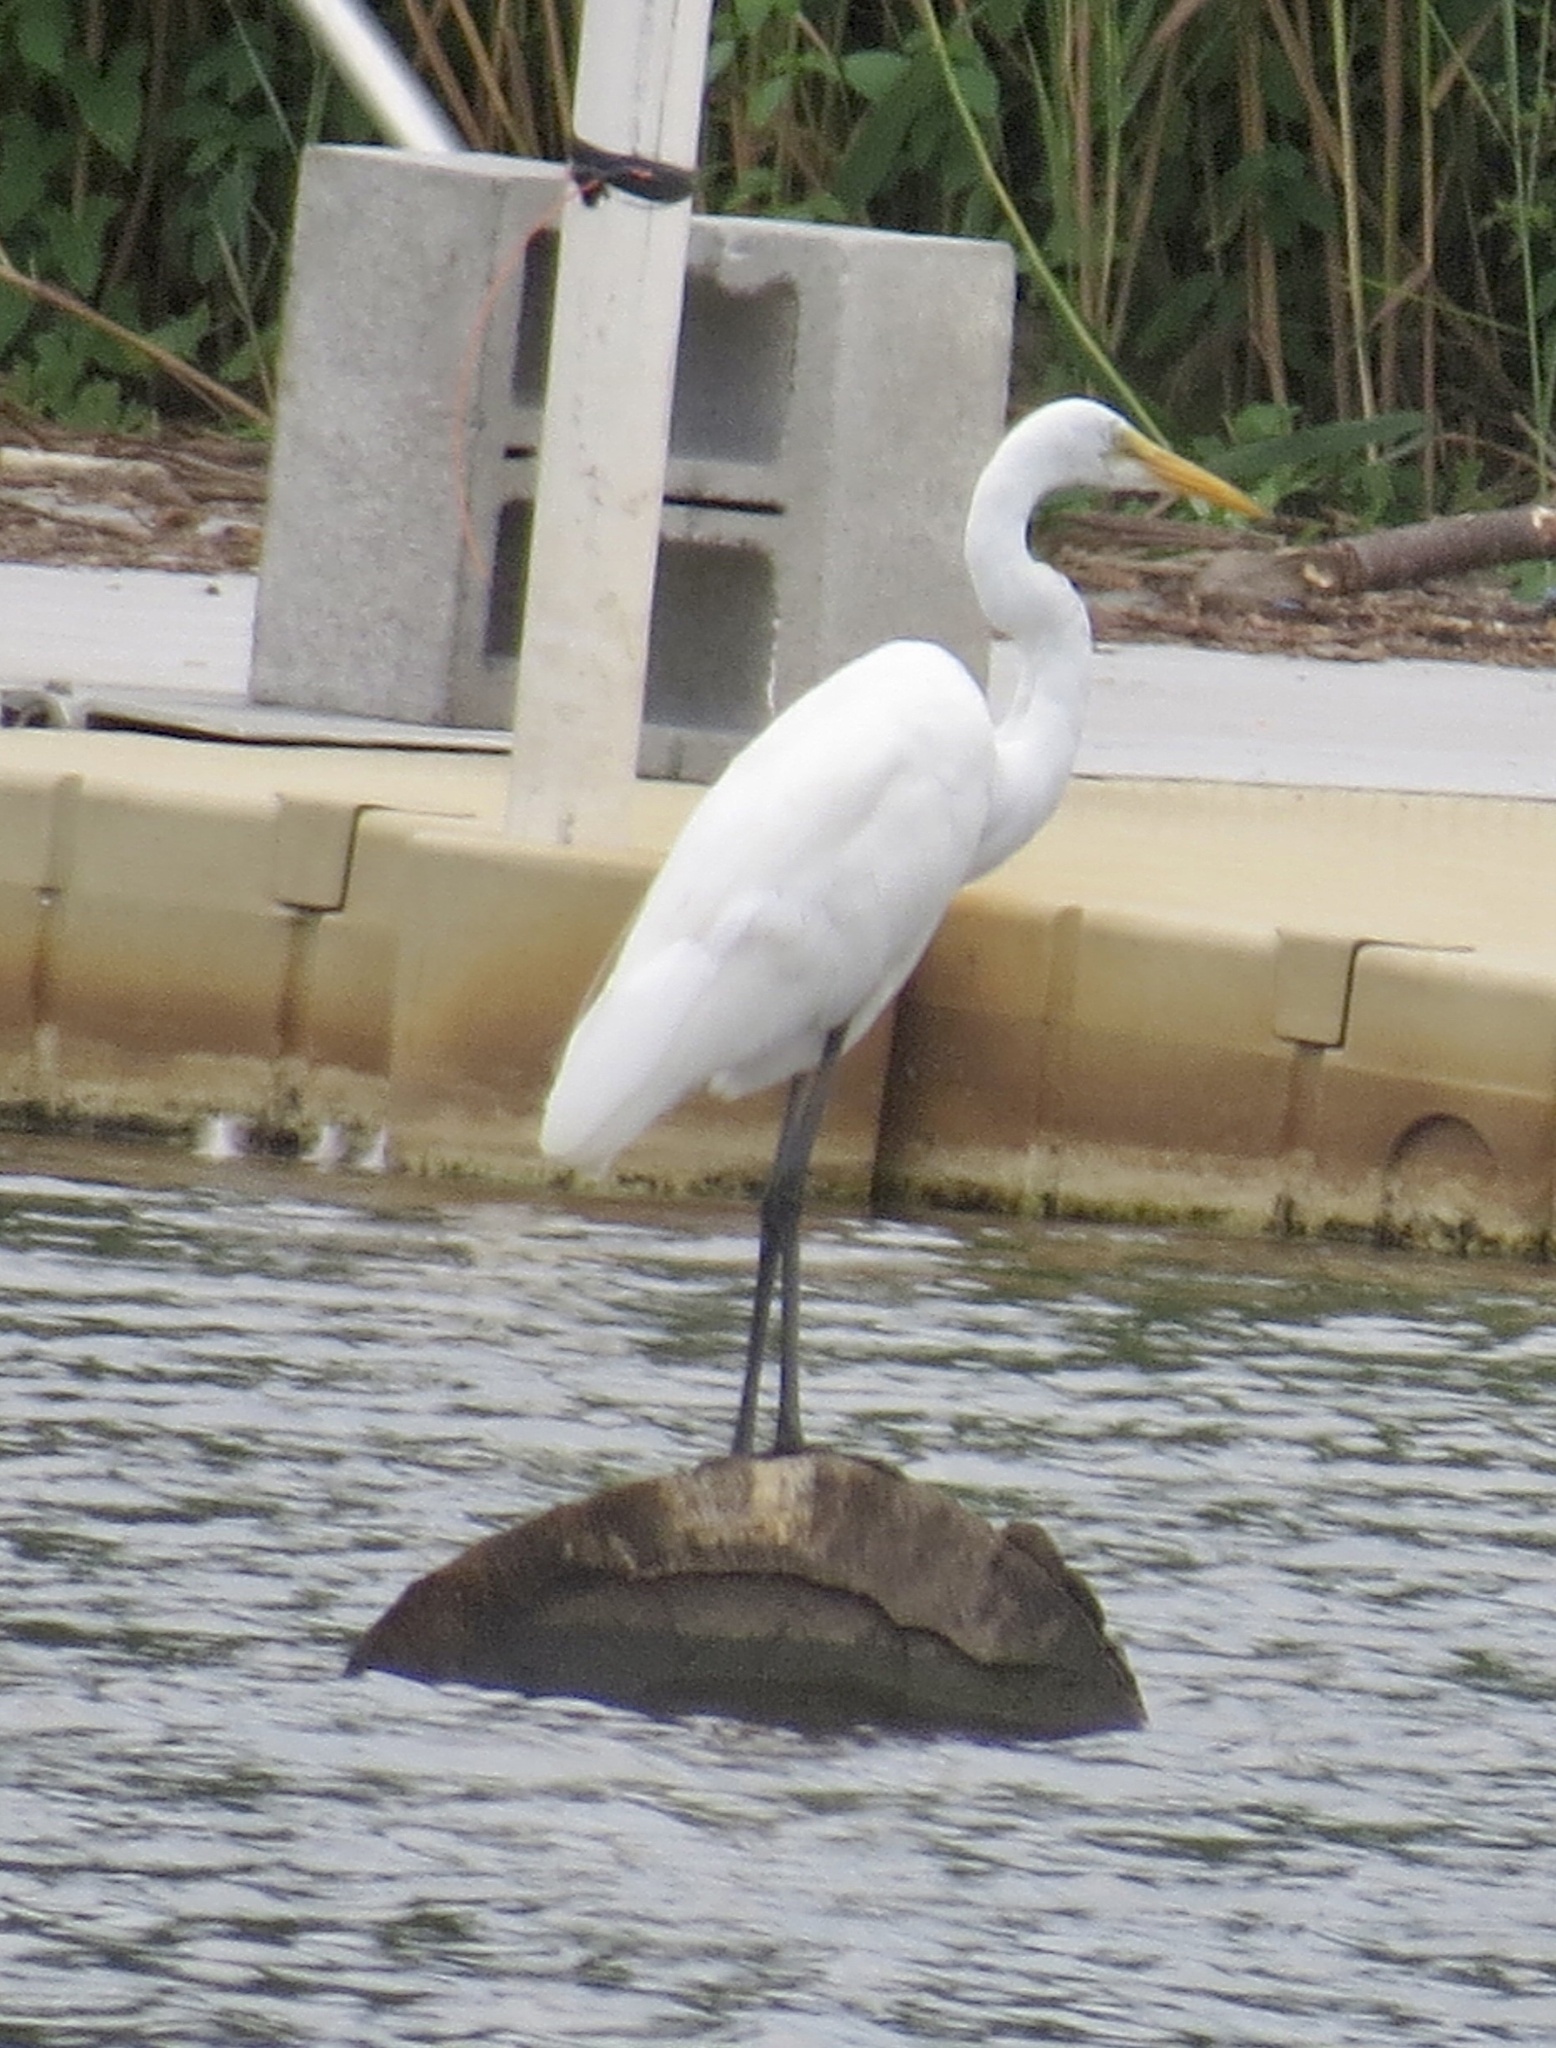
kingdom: Animalia
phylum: Chordata
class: Aves
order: Pelecaniformes
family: Ardeidae
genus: Ardea
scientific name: Ardea alba
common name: Great egret
